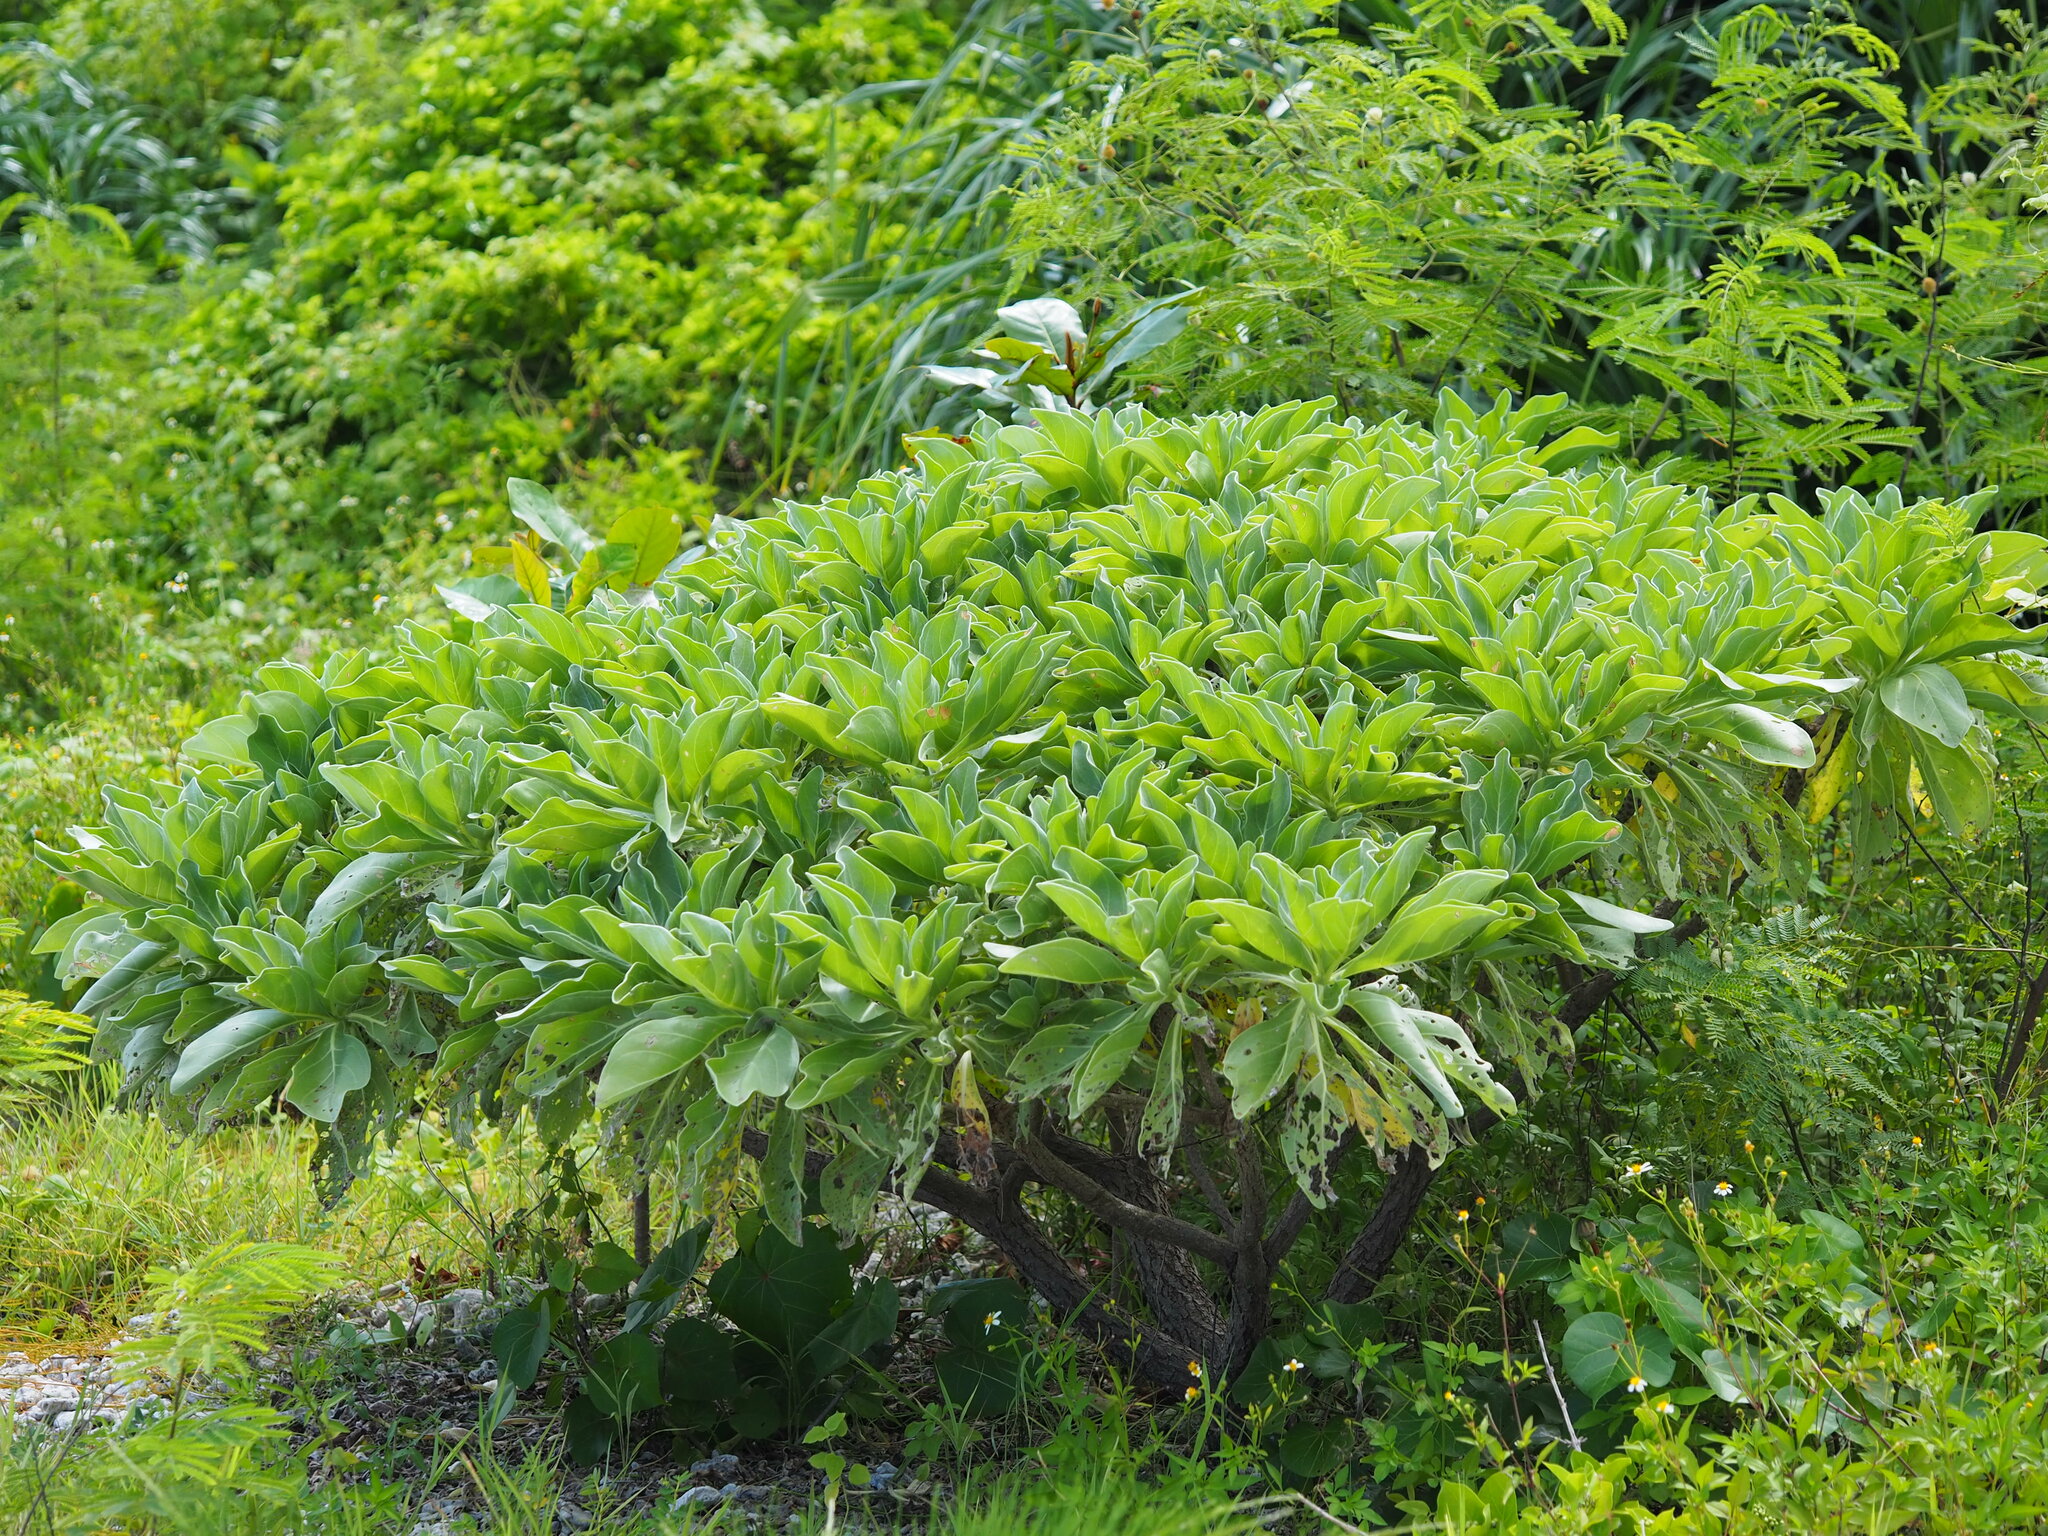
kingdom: Plantae
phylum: Tracheophyta
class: Magnoliopsida
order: Boraginales
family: Heliotropiaceae
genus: Heliotropium
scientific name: Heliotropium velutinum
